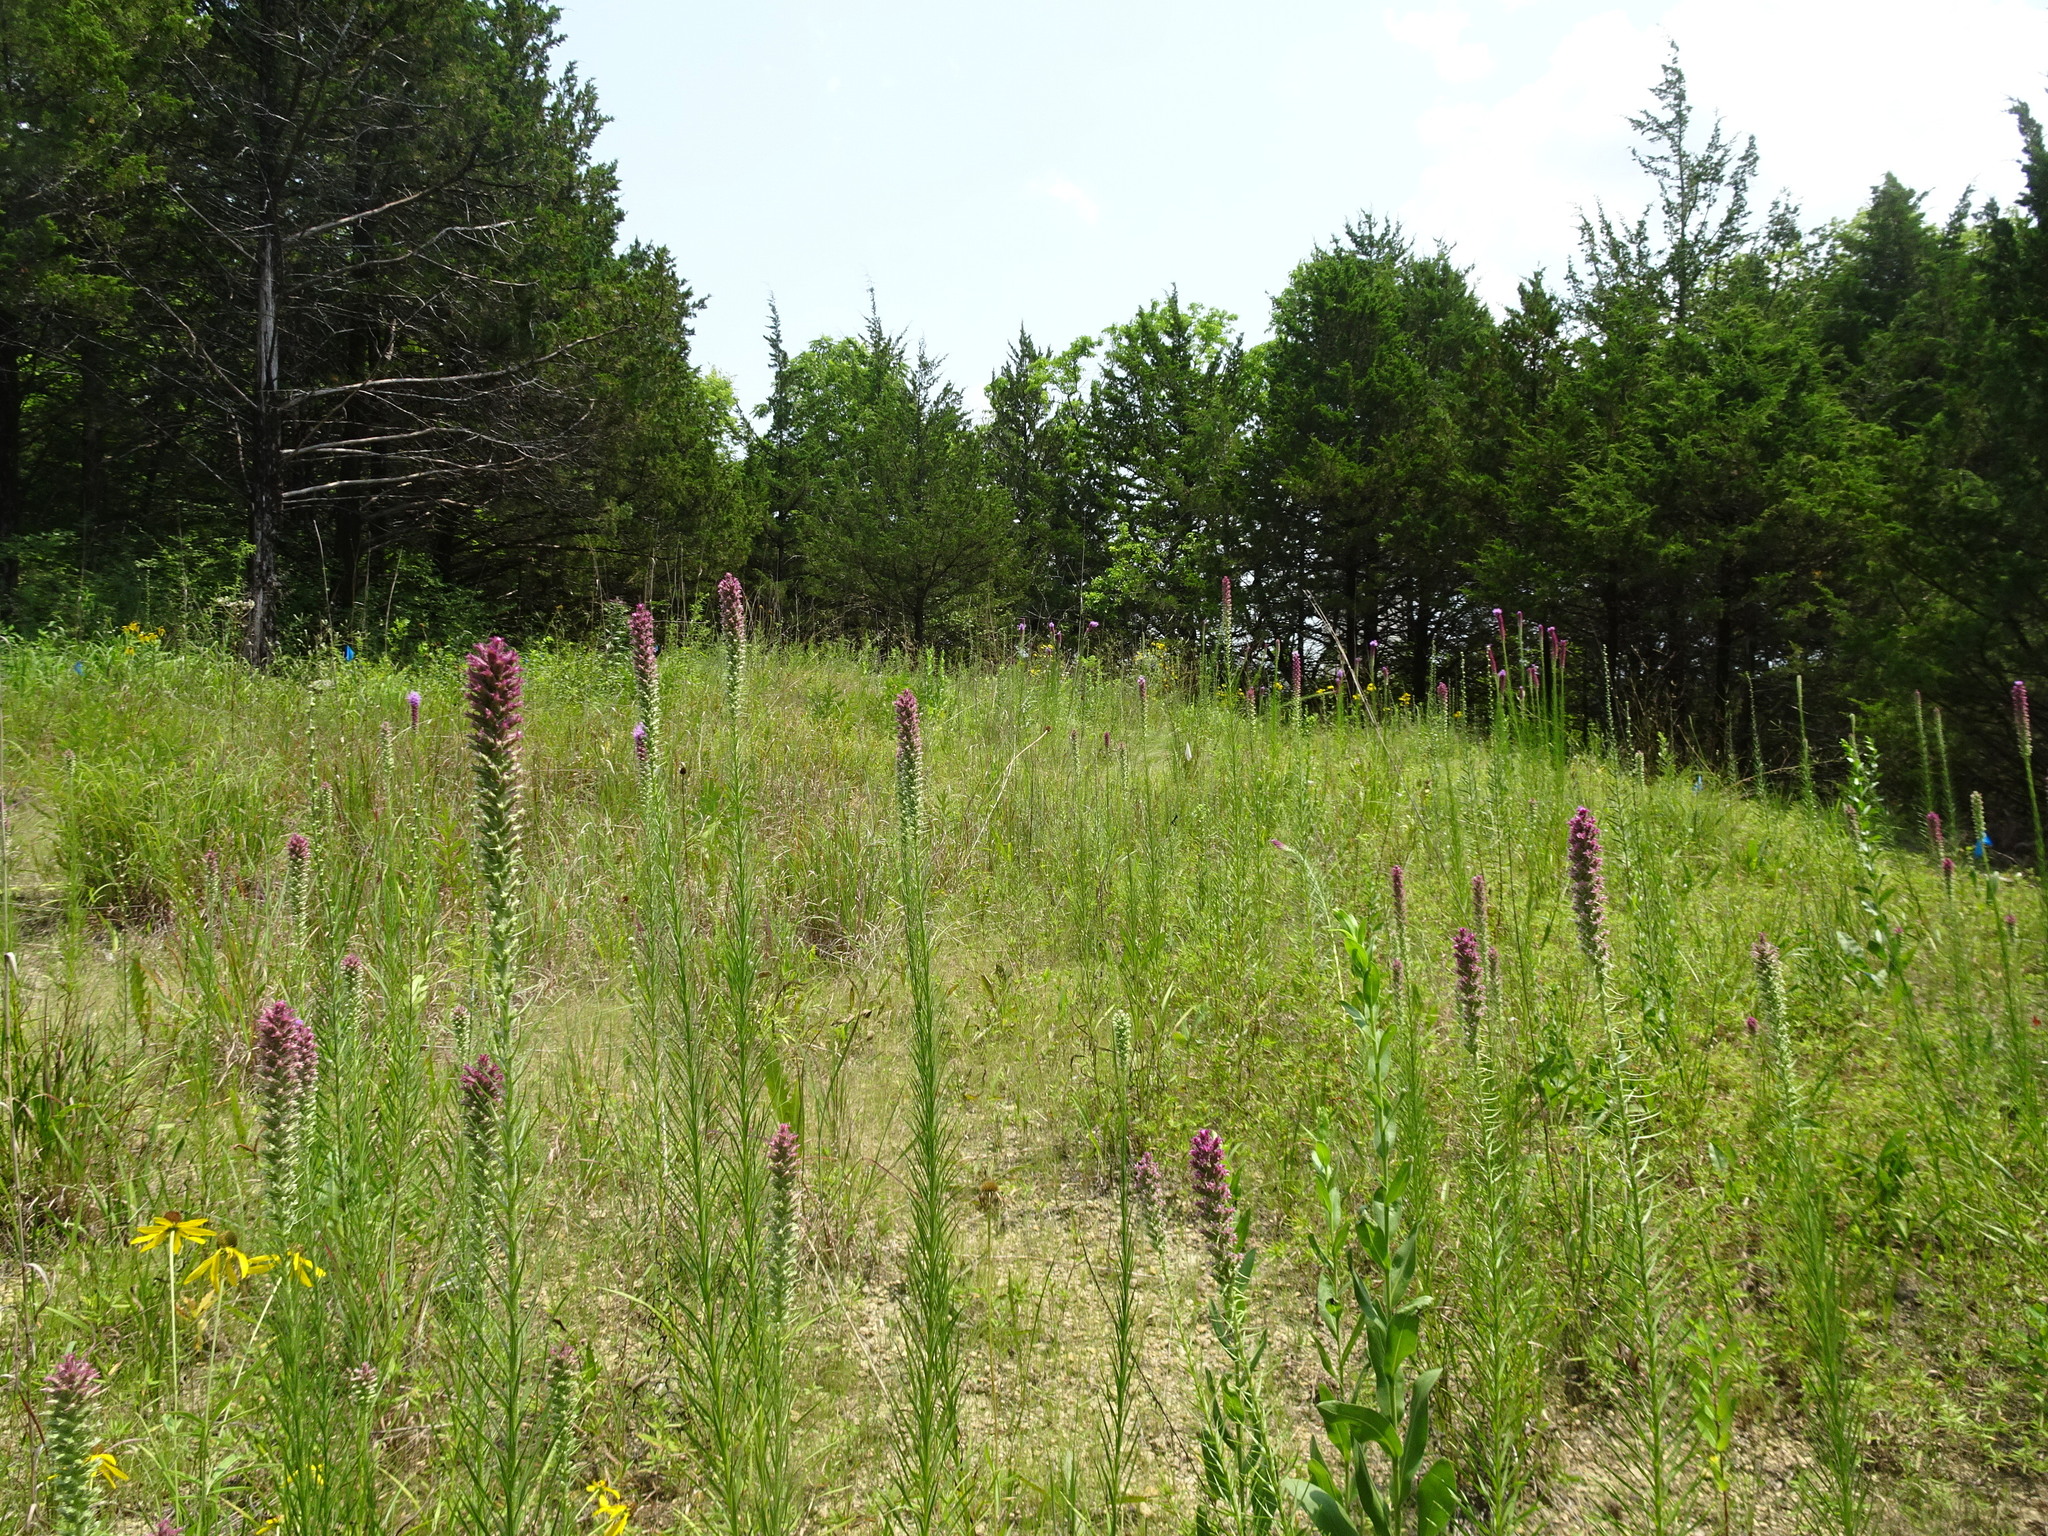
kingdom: Plantae
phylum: Tracheophyta
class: Magnoliopsida
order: Asterales
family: Asteraceae
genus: Liatris
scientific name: Liatris pycnostachya
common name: Cattail gayfeather
